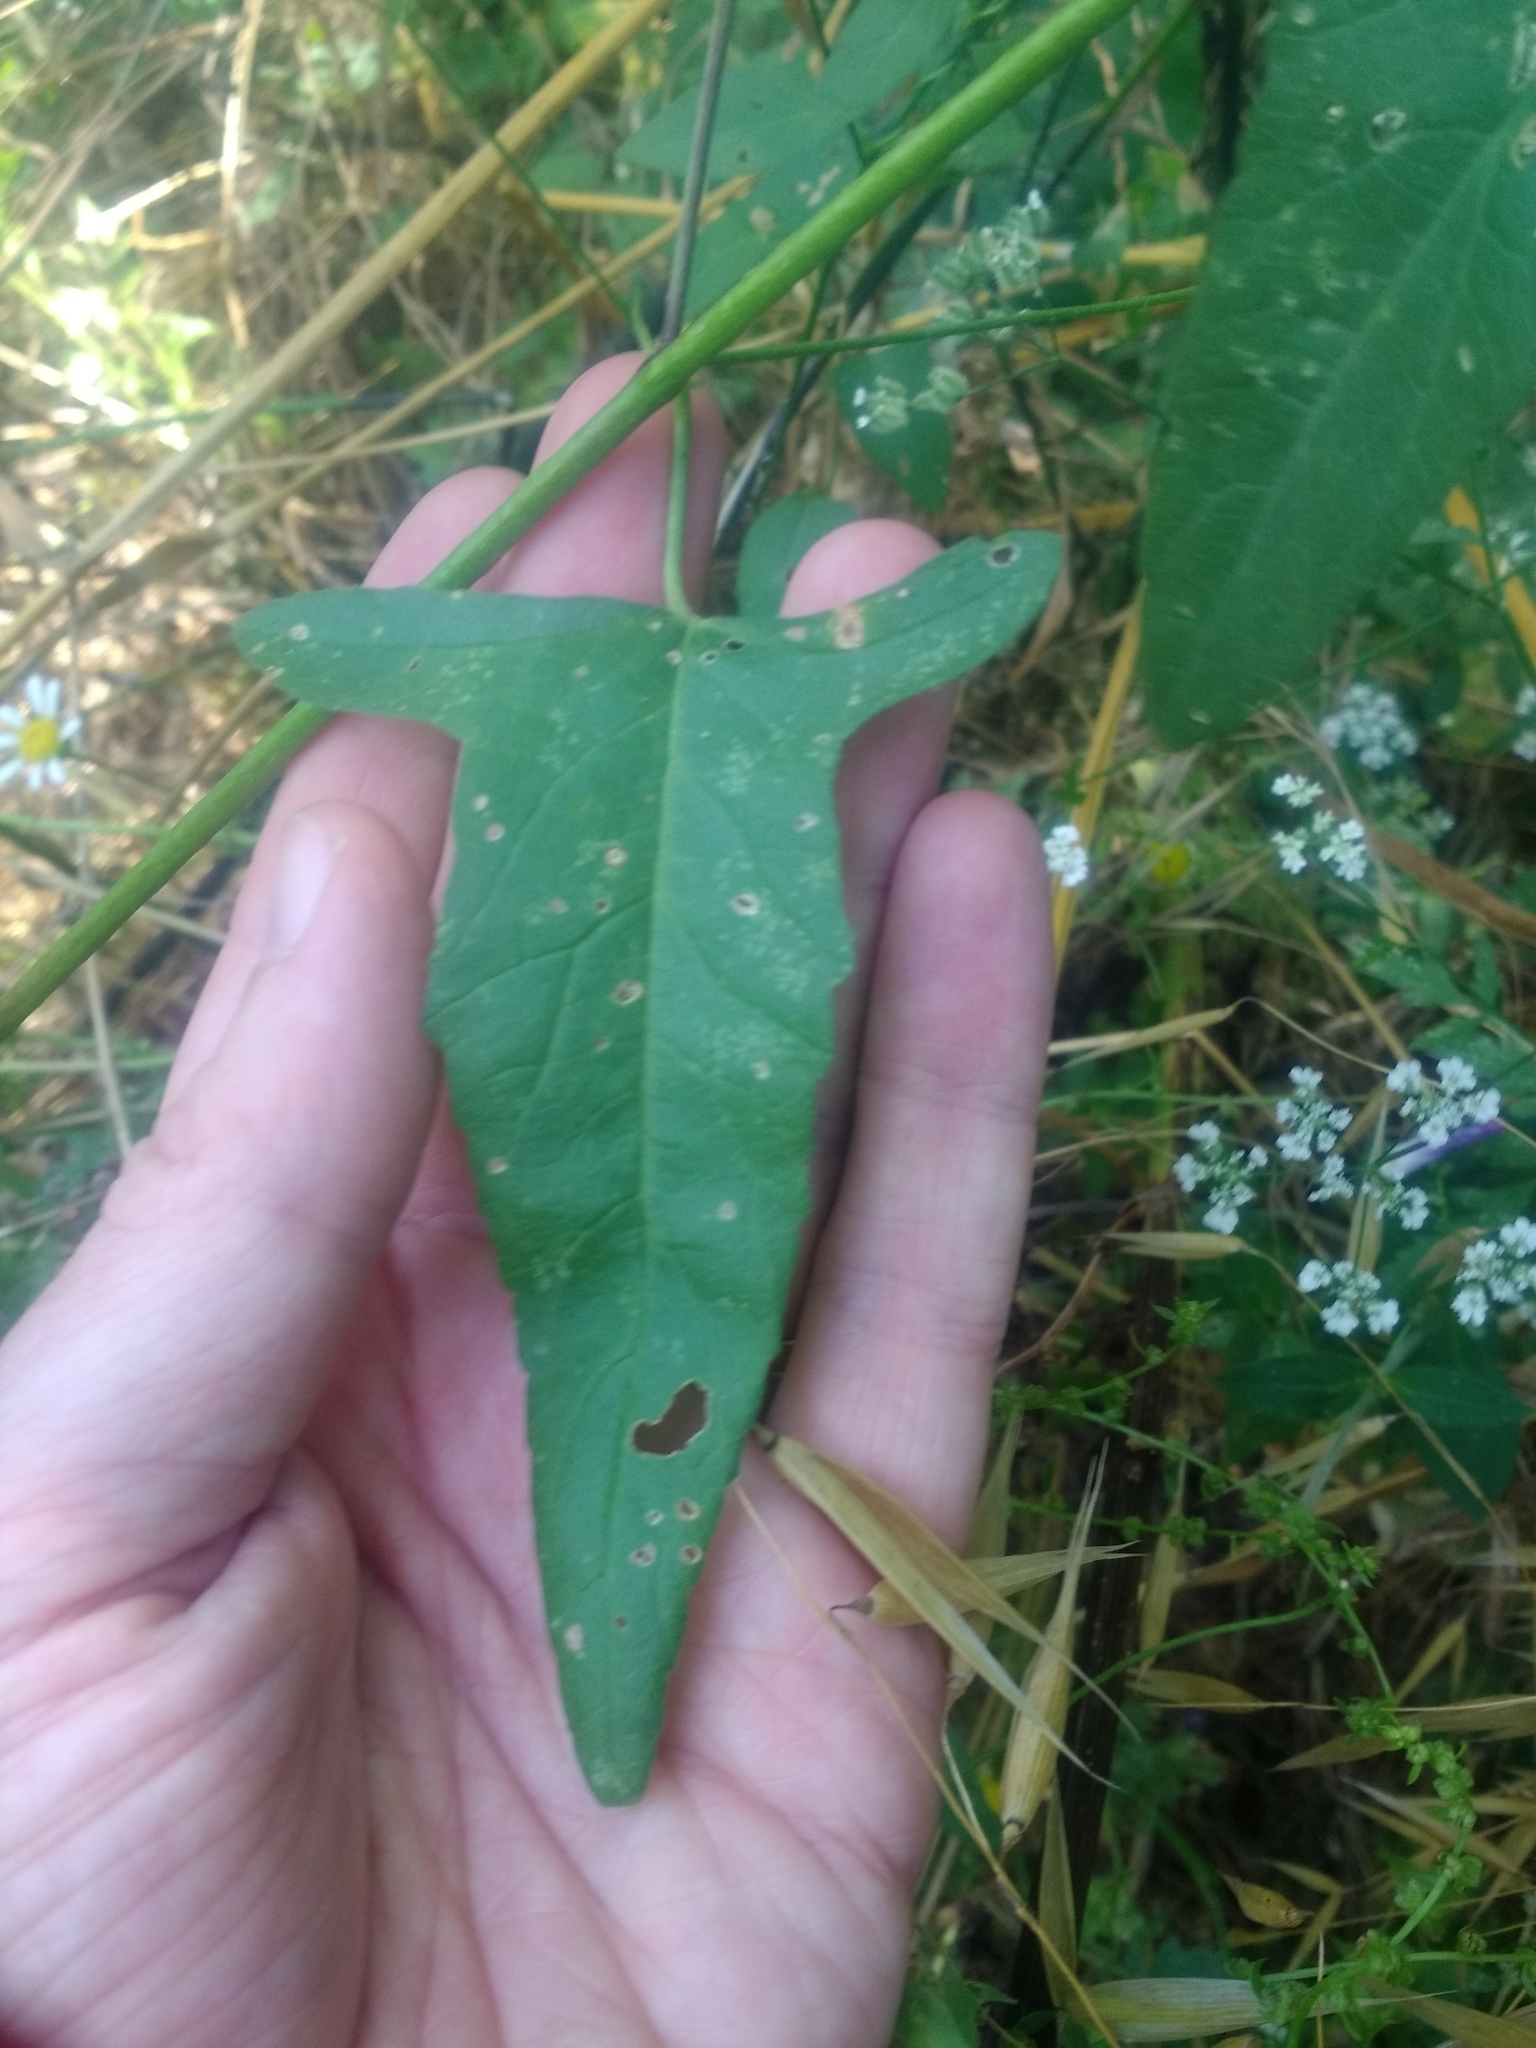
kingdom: Plantae
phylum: Tracheophyta
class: Magnoliopsida
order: Malvales
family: Malvaceae
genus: Malva
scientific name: Malva punctata
